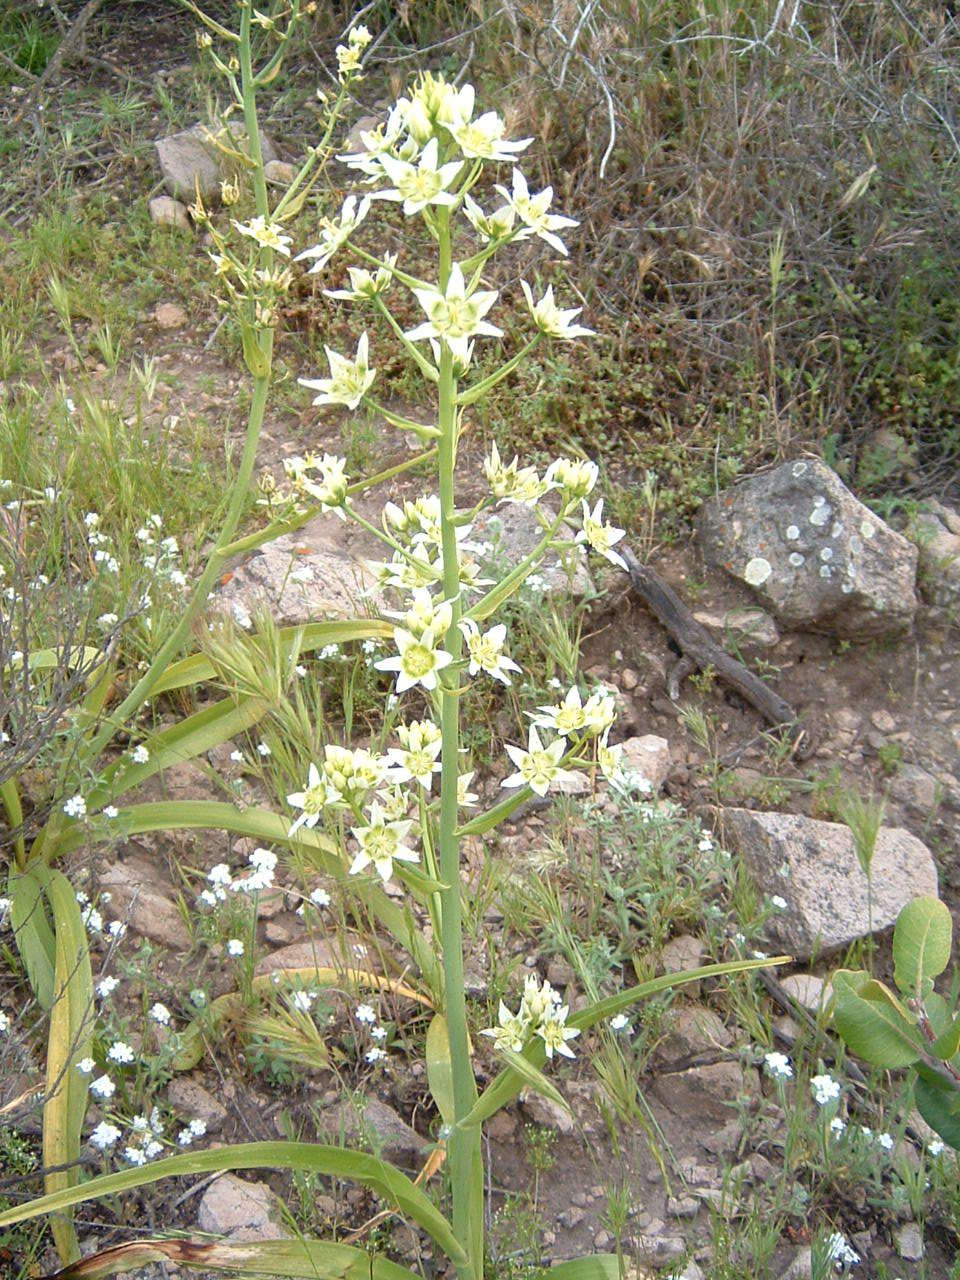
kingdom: Plantae
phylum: Tracheophyta
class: Liliopsida
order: Liliales
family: Melanthiaceae
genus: Toxicoscordion
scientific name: Toxicoscordion fremontii
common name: Fremont's death camas
